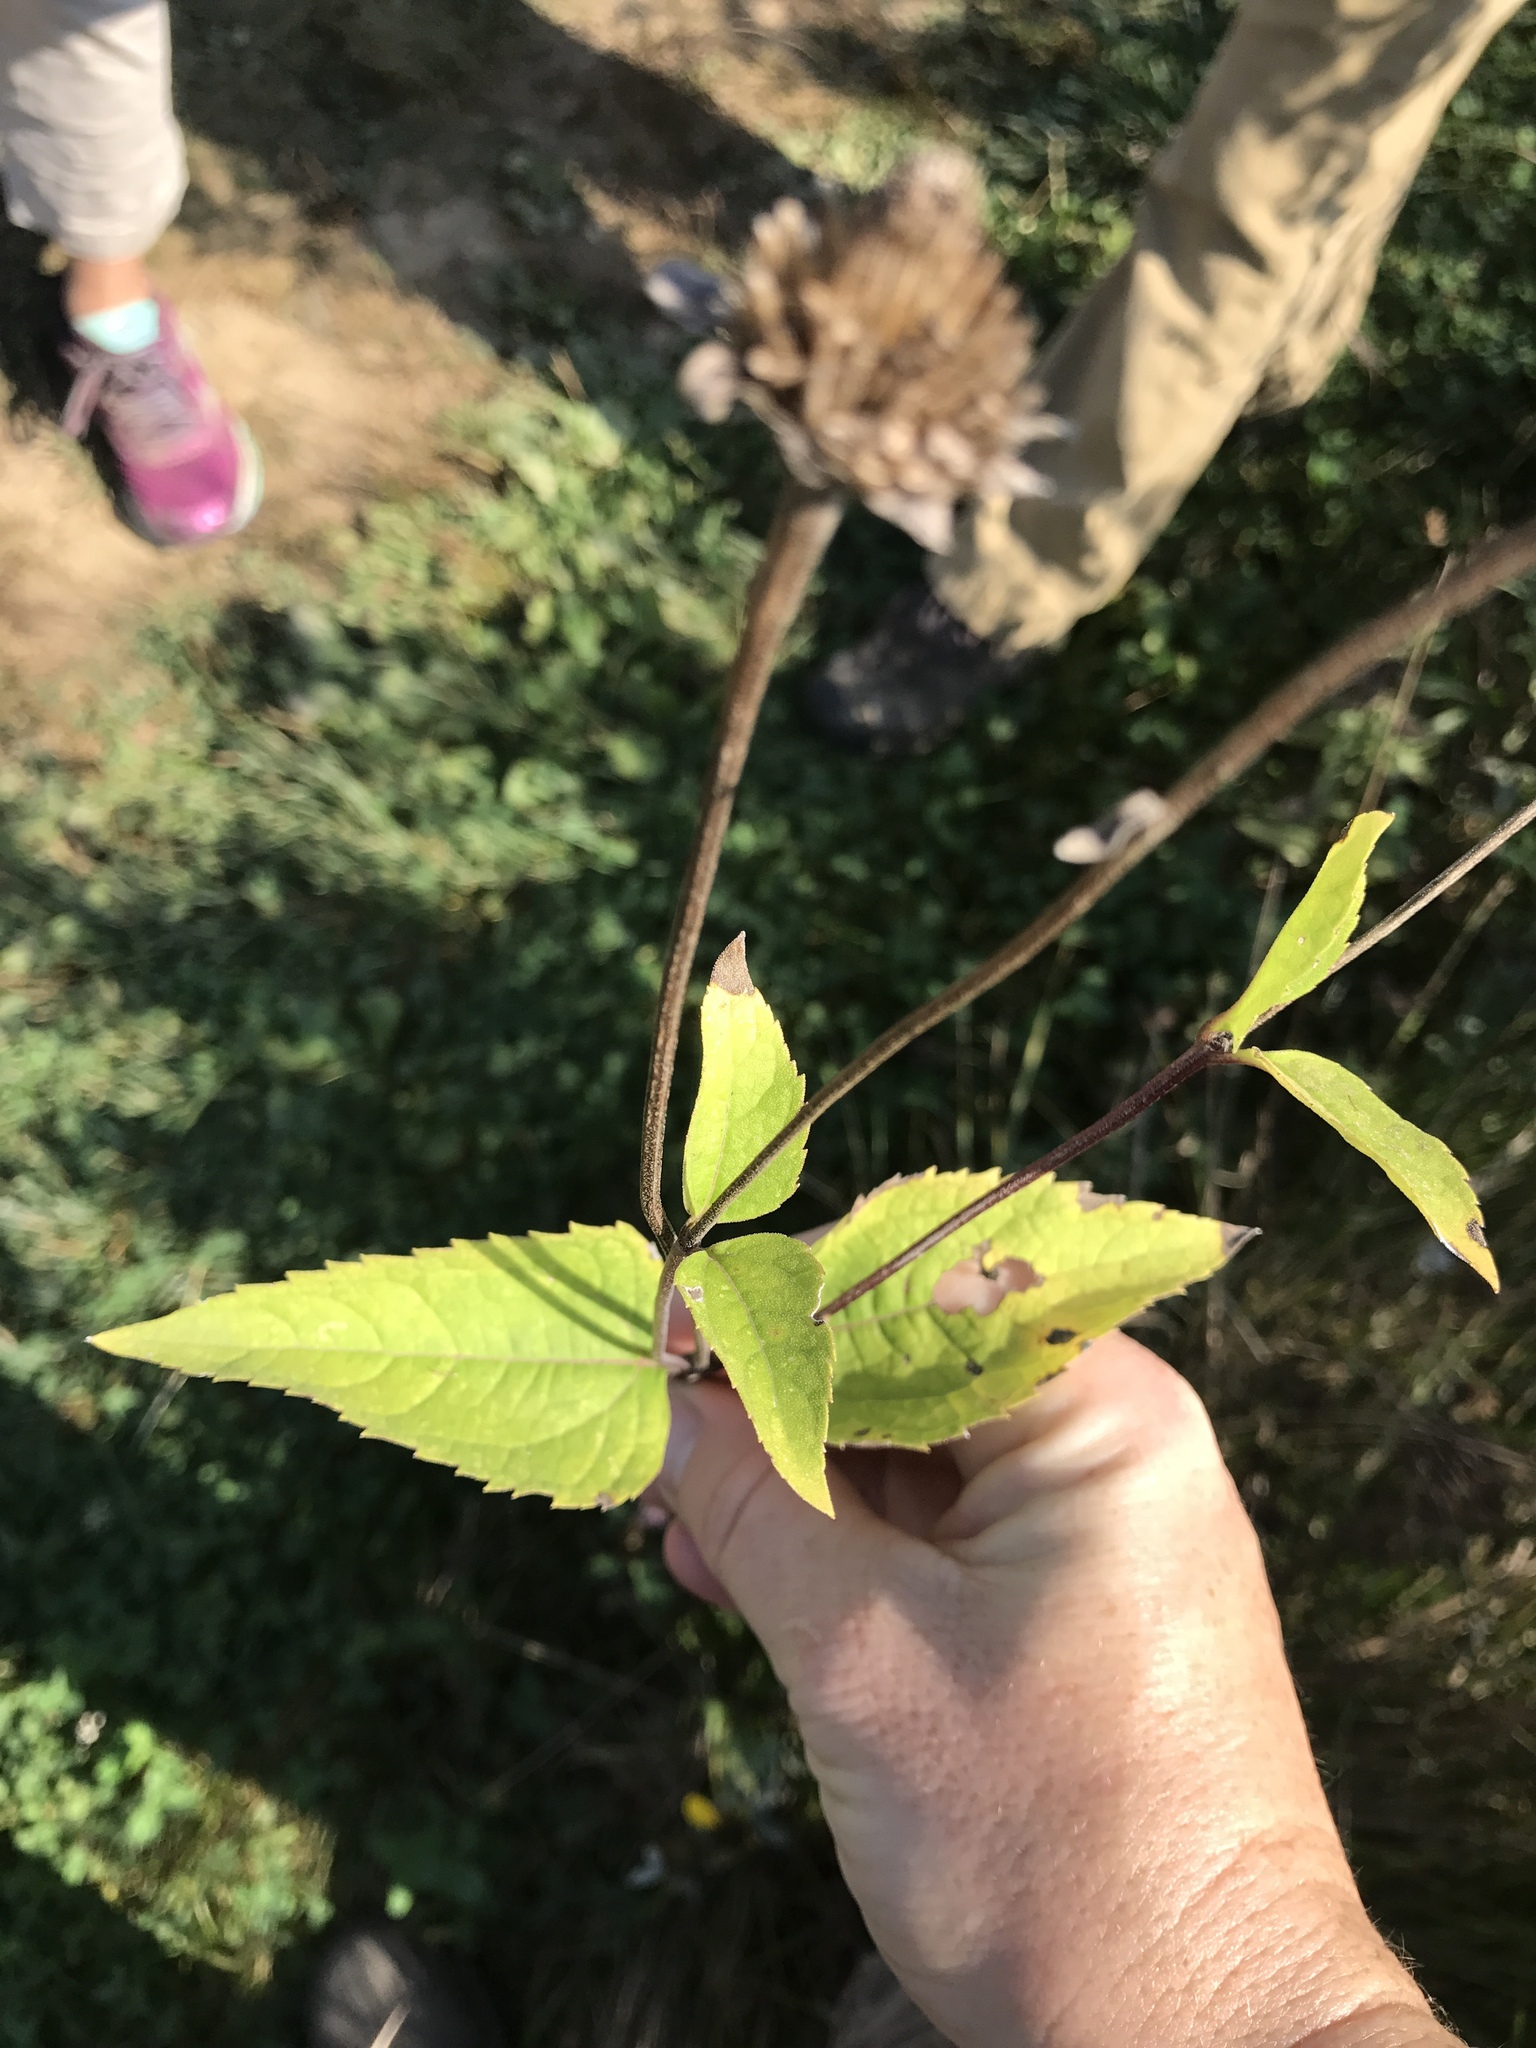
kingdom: Plantae
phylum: Tracheophyta
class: Magnoliopsida
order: Asterales
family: Asteraceae
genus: Heliopsis
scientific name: Heliopsis helianthoides
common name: False sunflower
